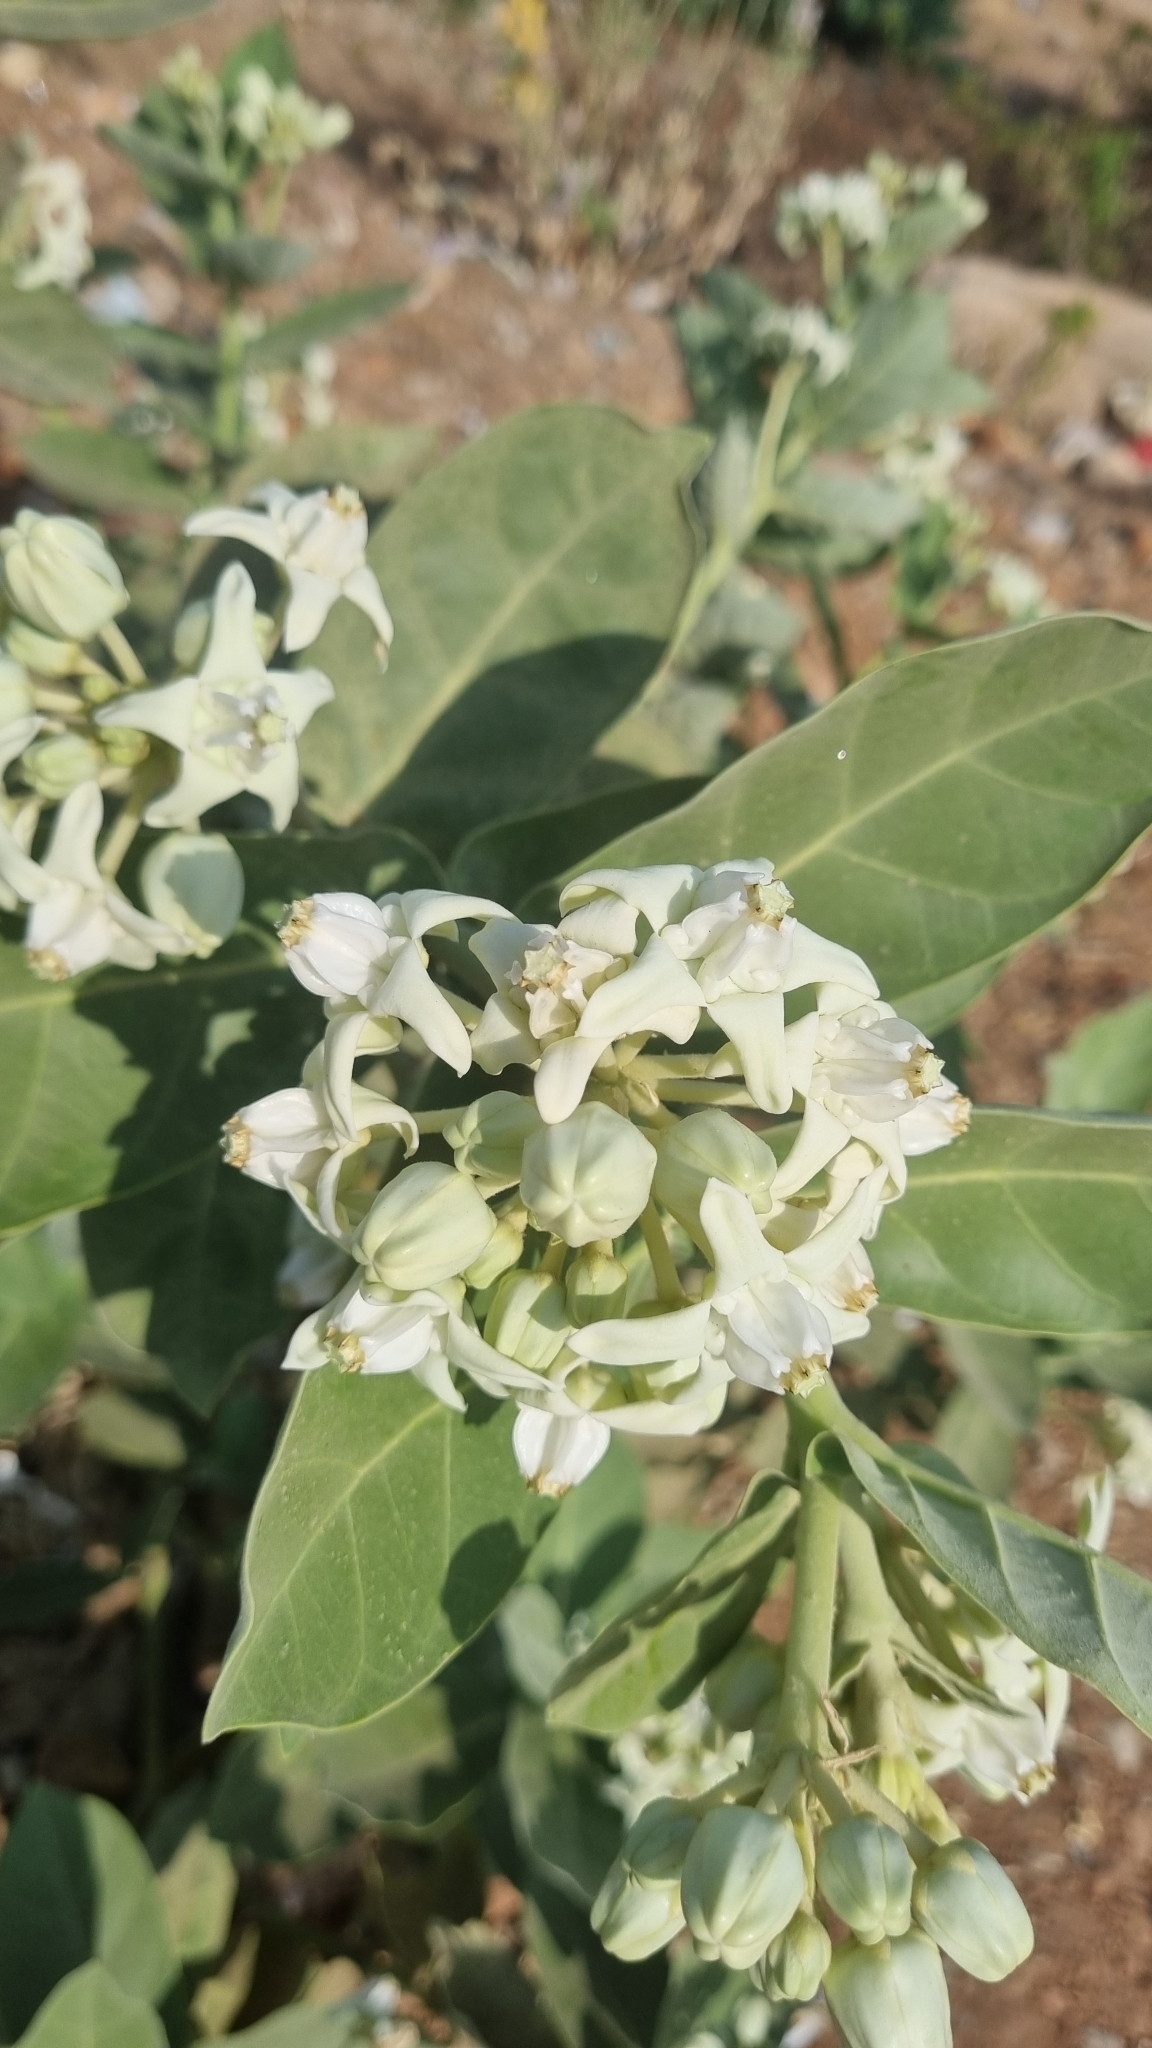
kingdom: Plantae
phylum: Tracheophyta
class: Magnoliopsida
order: Gentianales
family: Apocynaceae
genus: Calotropis
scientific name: Calotropis gigantea
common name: Crown flower
